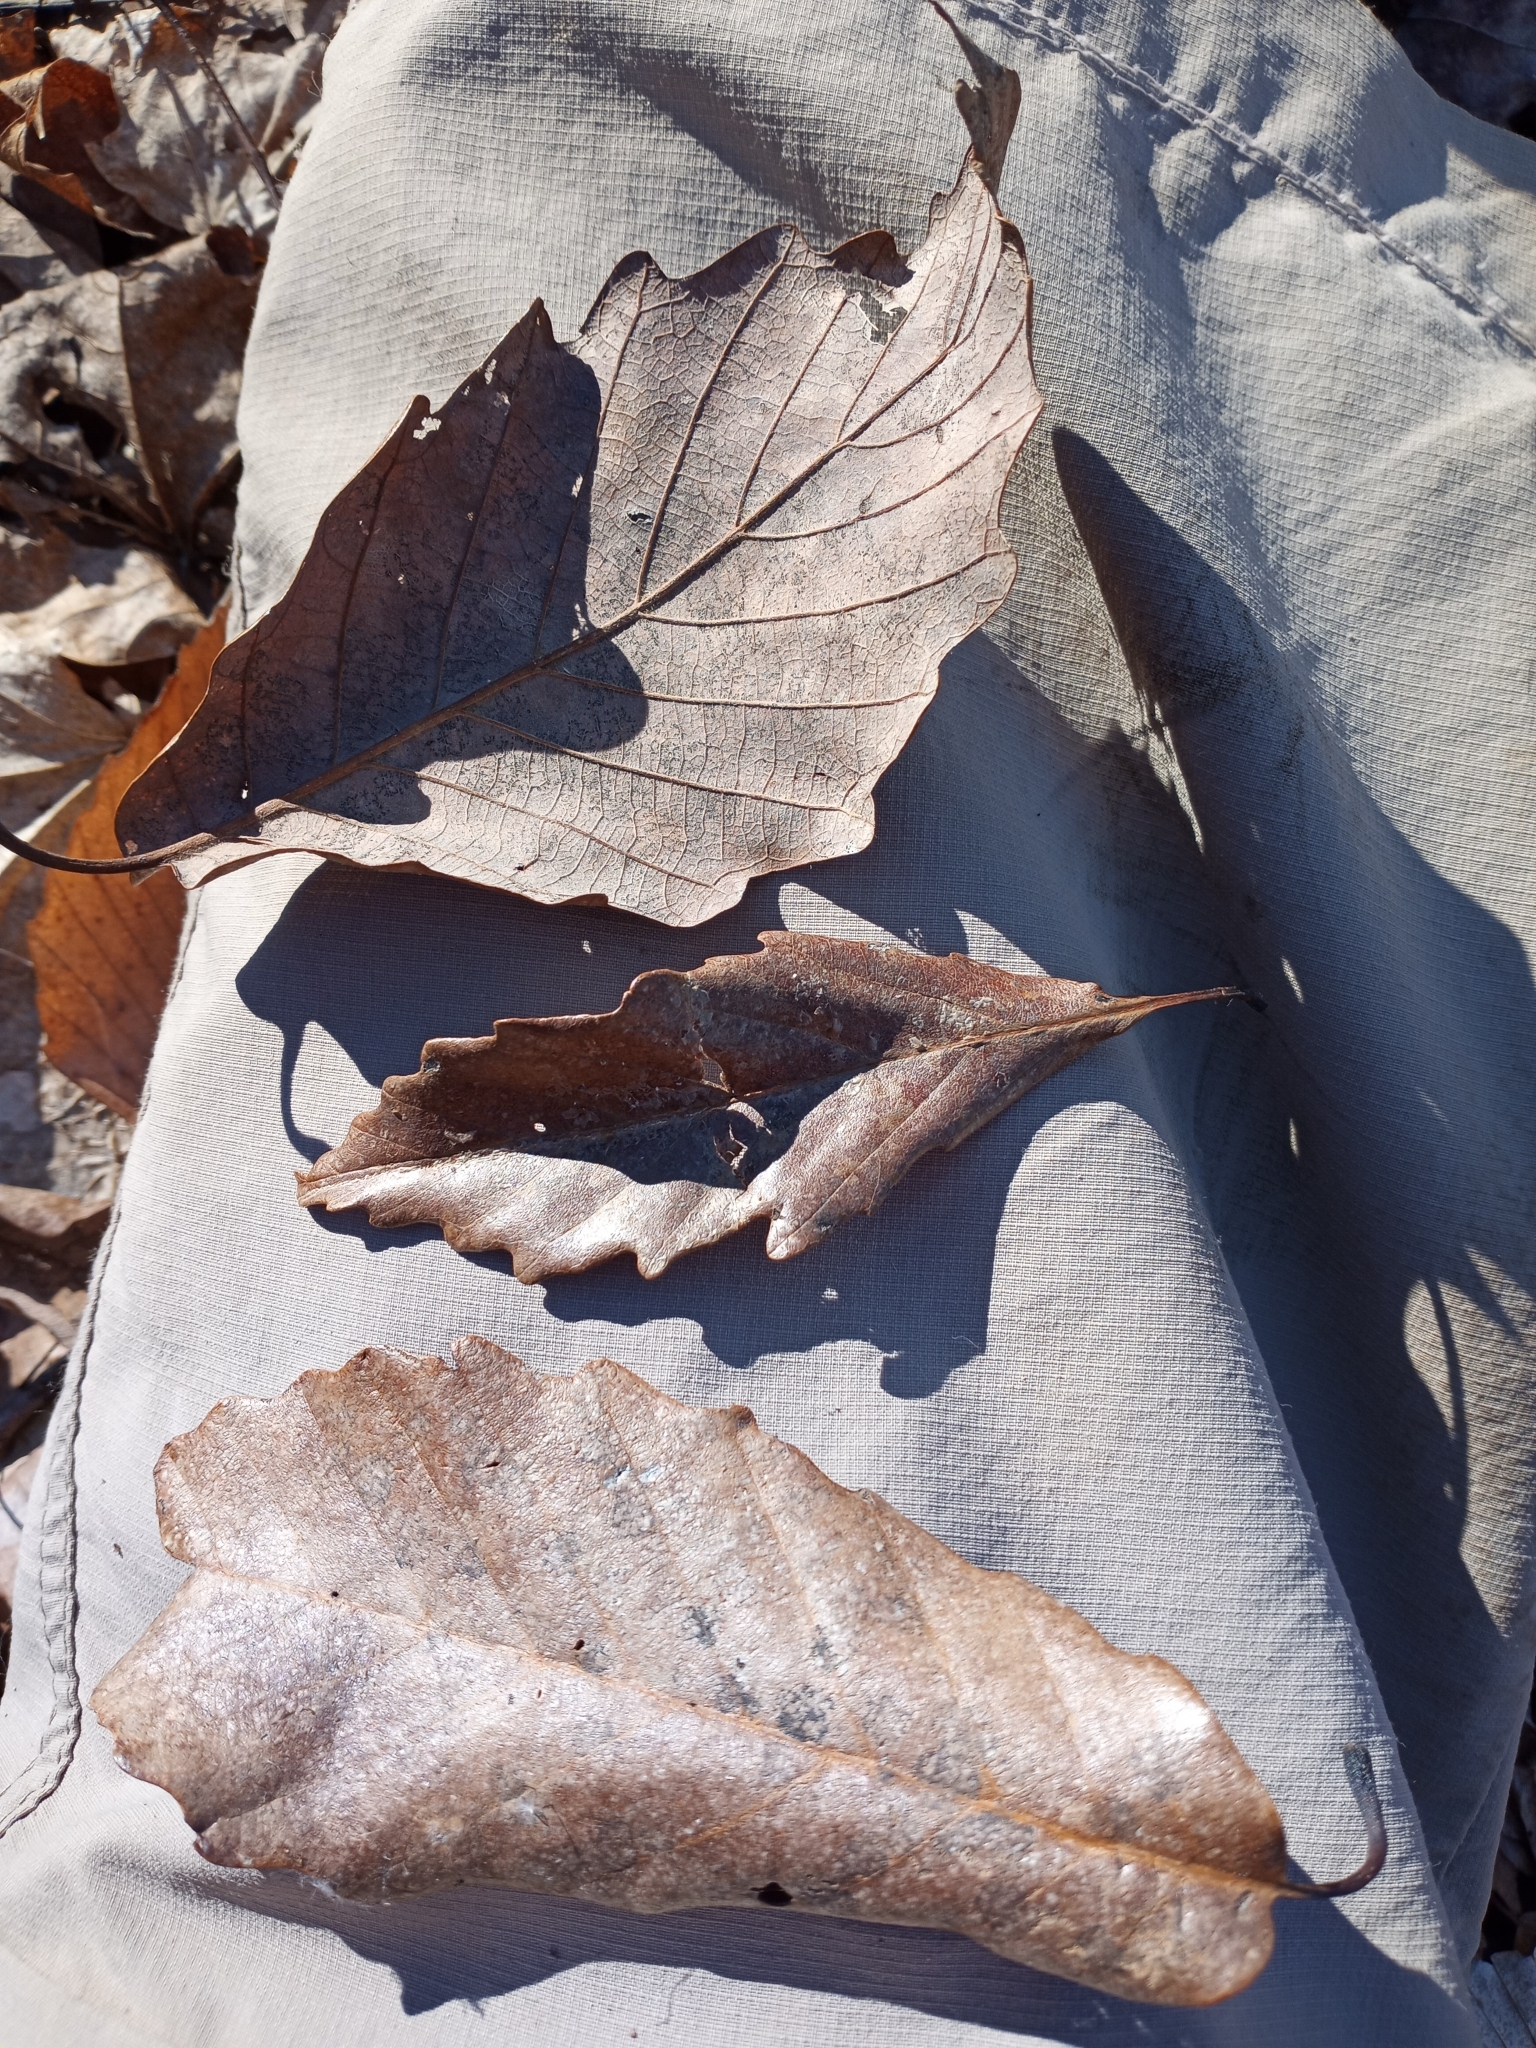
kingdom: Plantae
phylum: Tracheophyta
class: Magnoliopsida
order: Fagales
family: Fagaceae
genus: Quercus
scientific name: Quercus montana
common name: Chestnut oak
